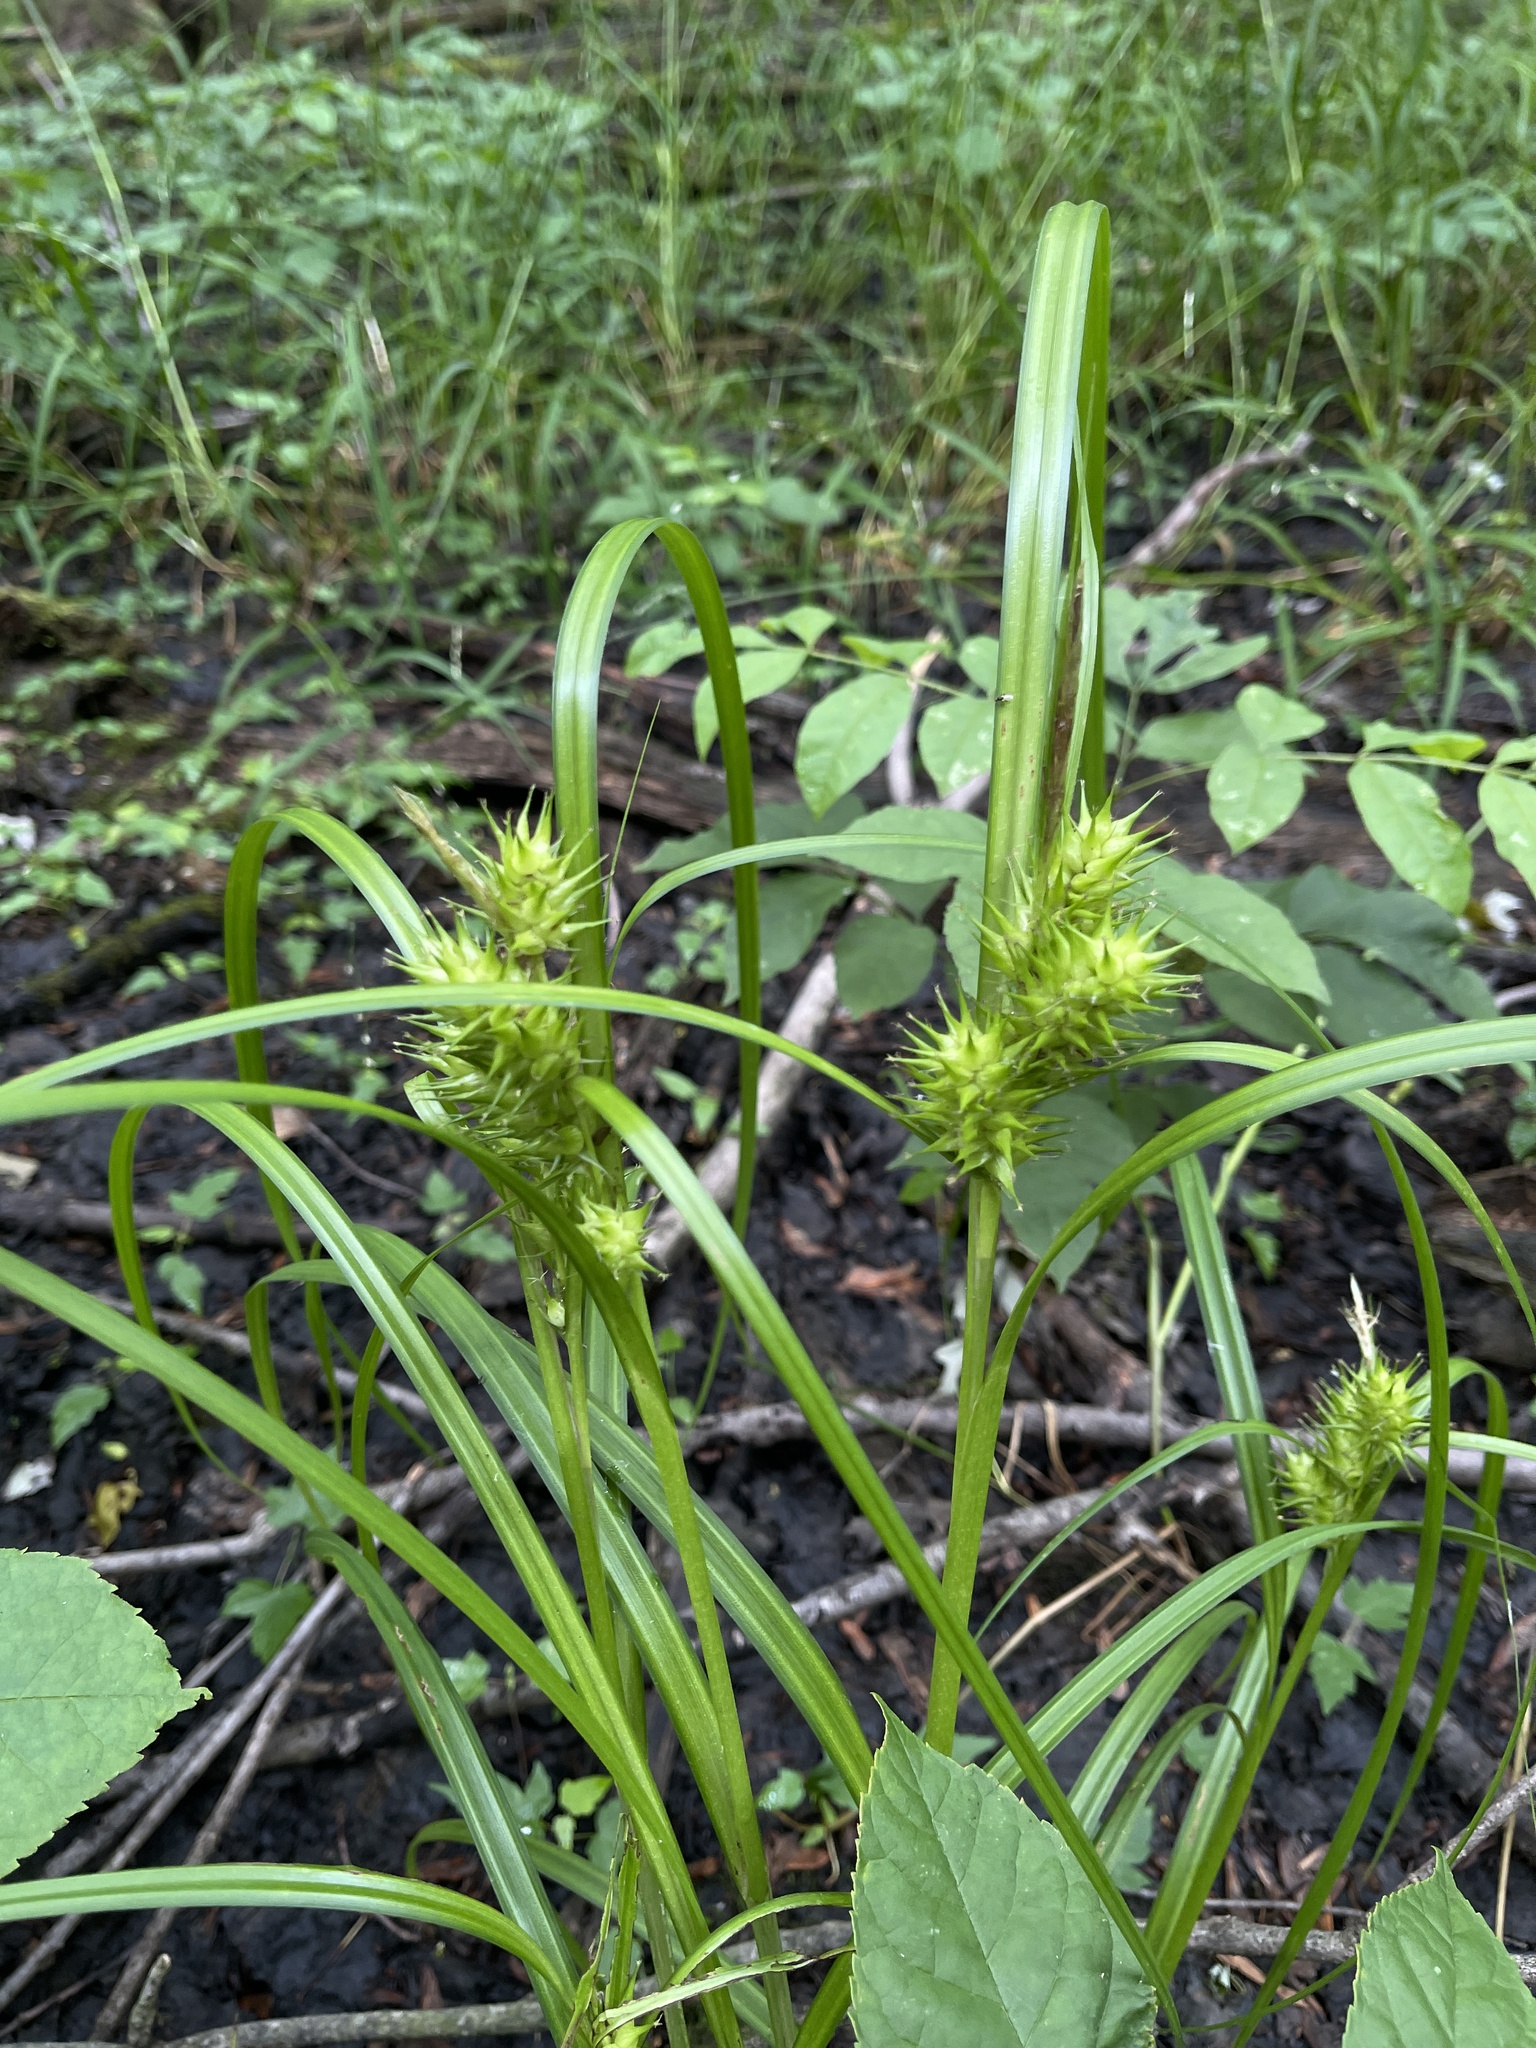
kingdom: Plantae
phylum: Tracheophyta
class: Liliopsida
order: Poales
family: Cyperaceae
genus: Carex
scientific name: Carex lupulina
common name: Hop sedge
